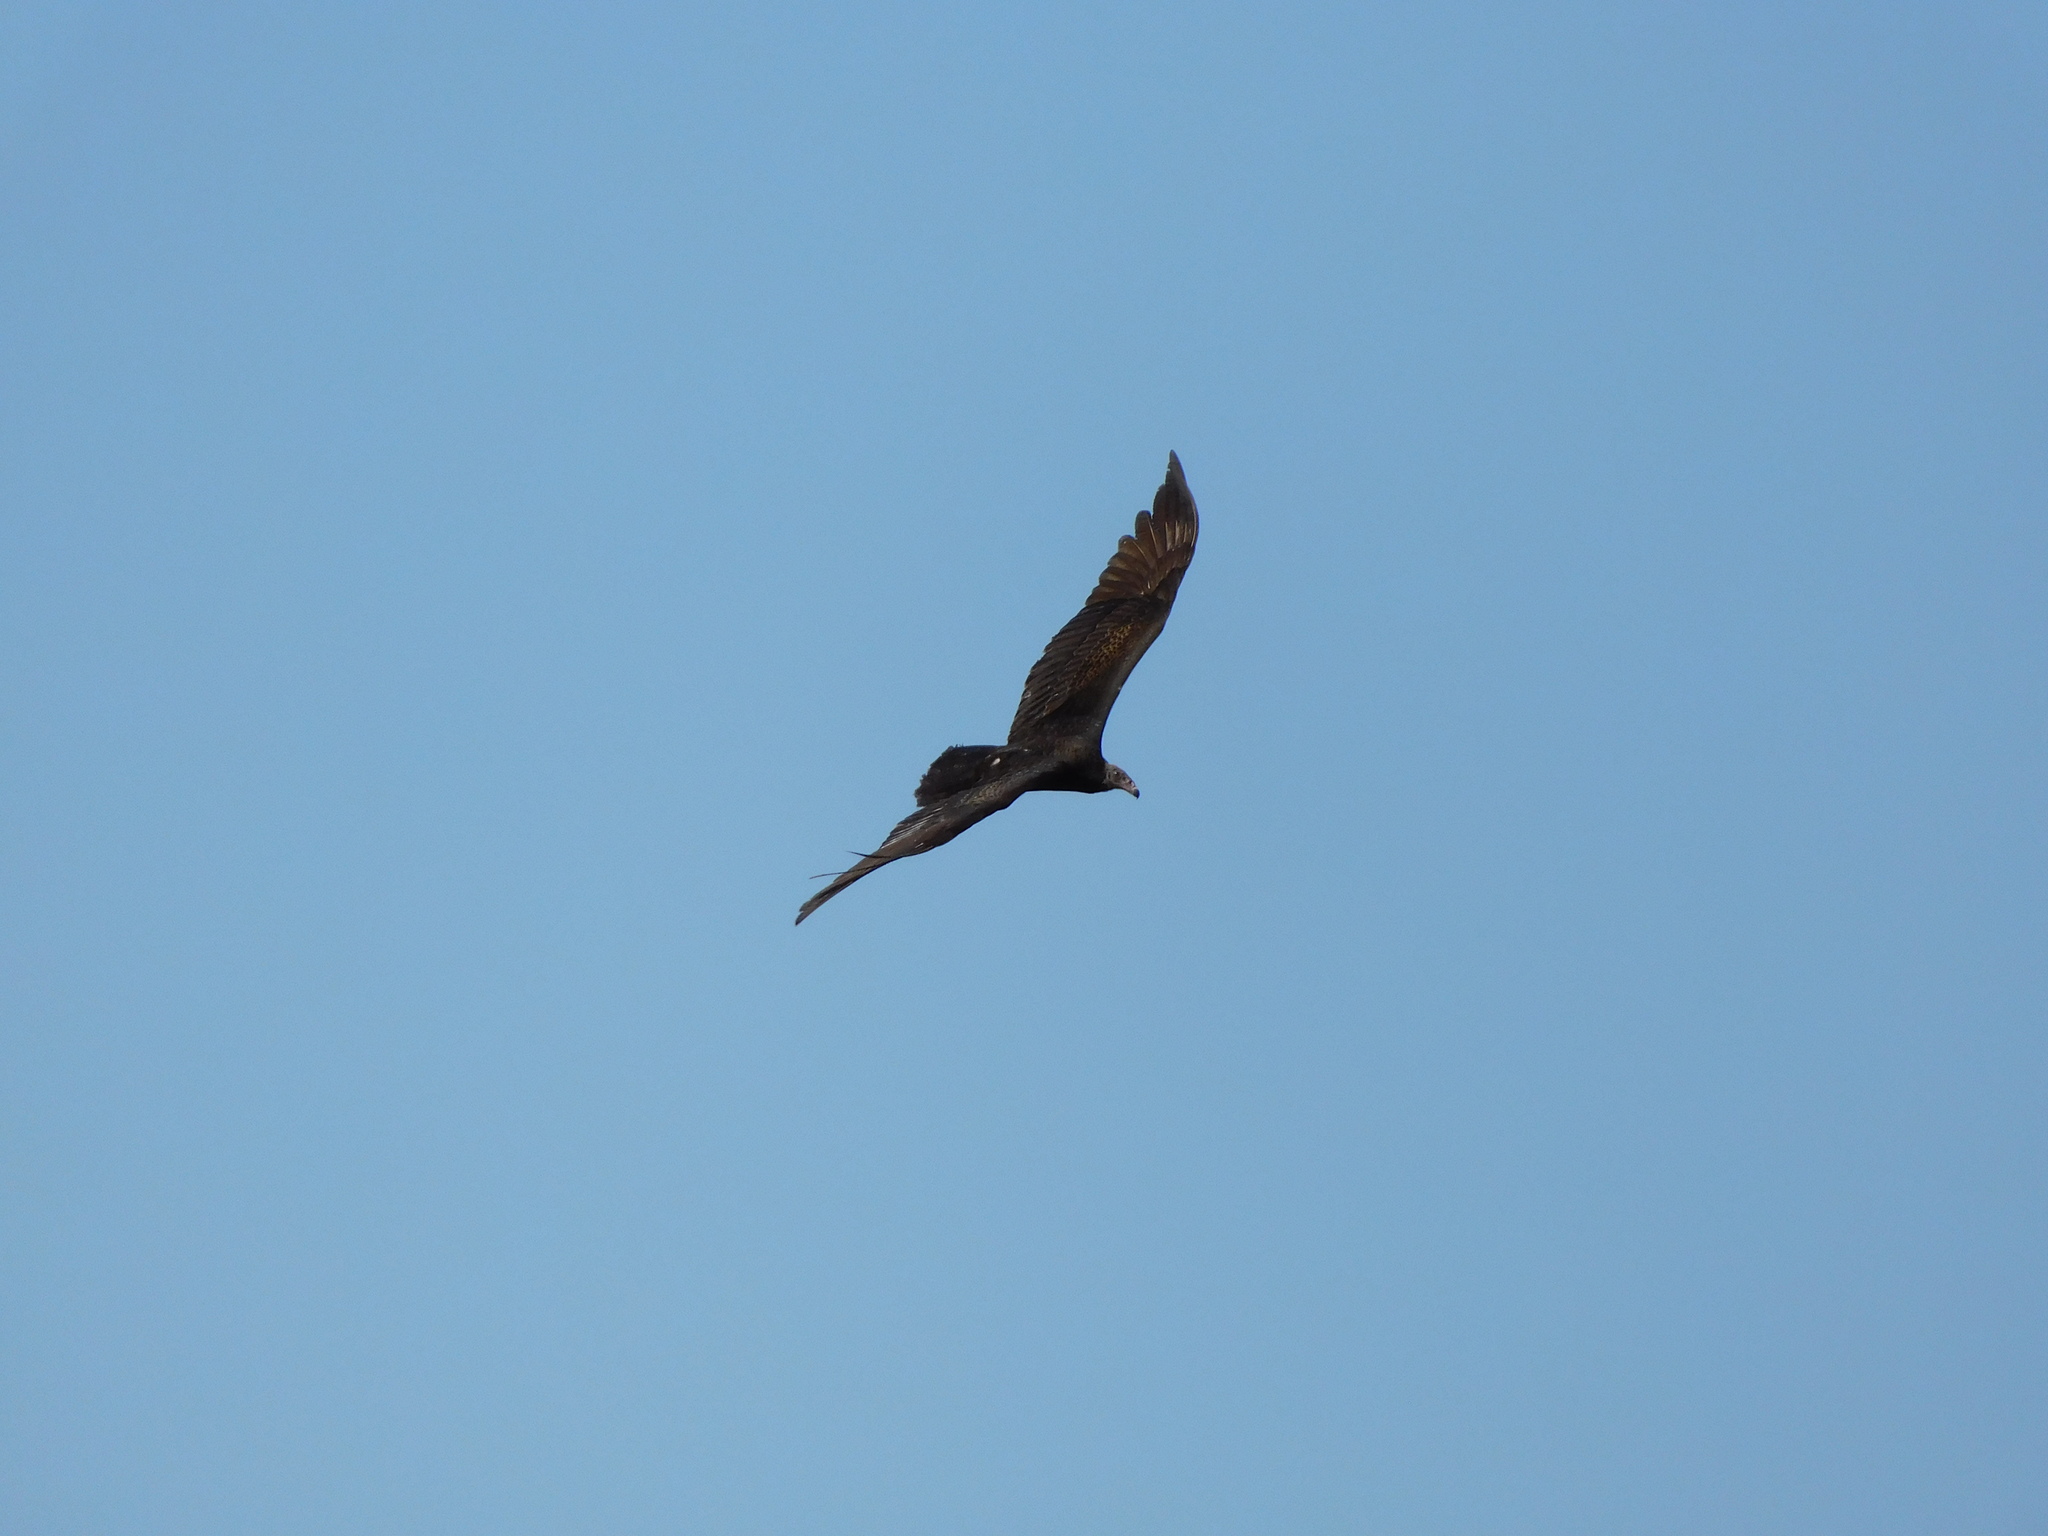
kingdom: Animalia
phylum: Chordata
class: Aves
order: Accipitriformes
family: Cathartidae
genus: Cathartes
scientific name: Cathartes aura
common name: Turkey vulture
